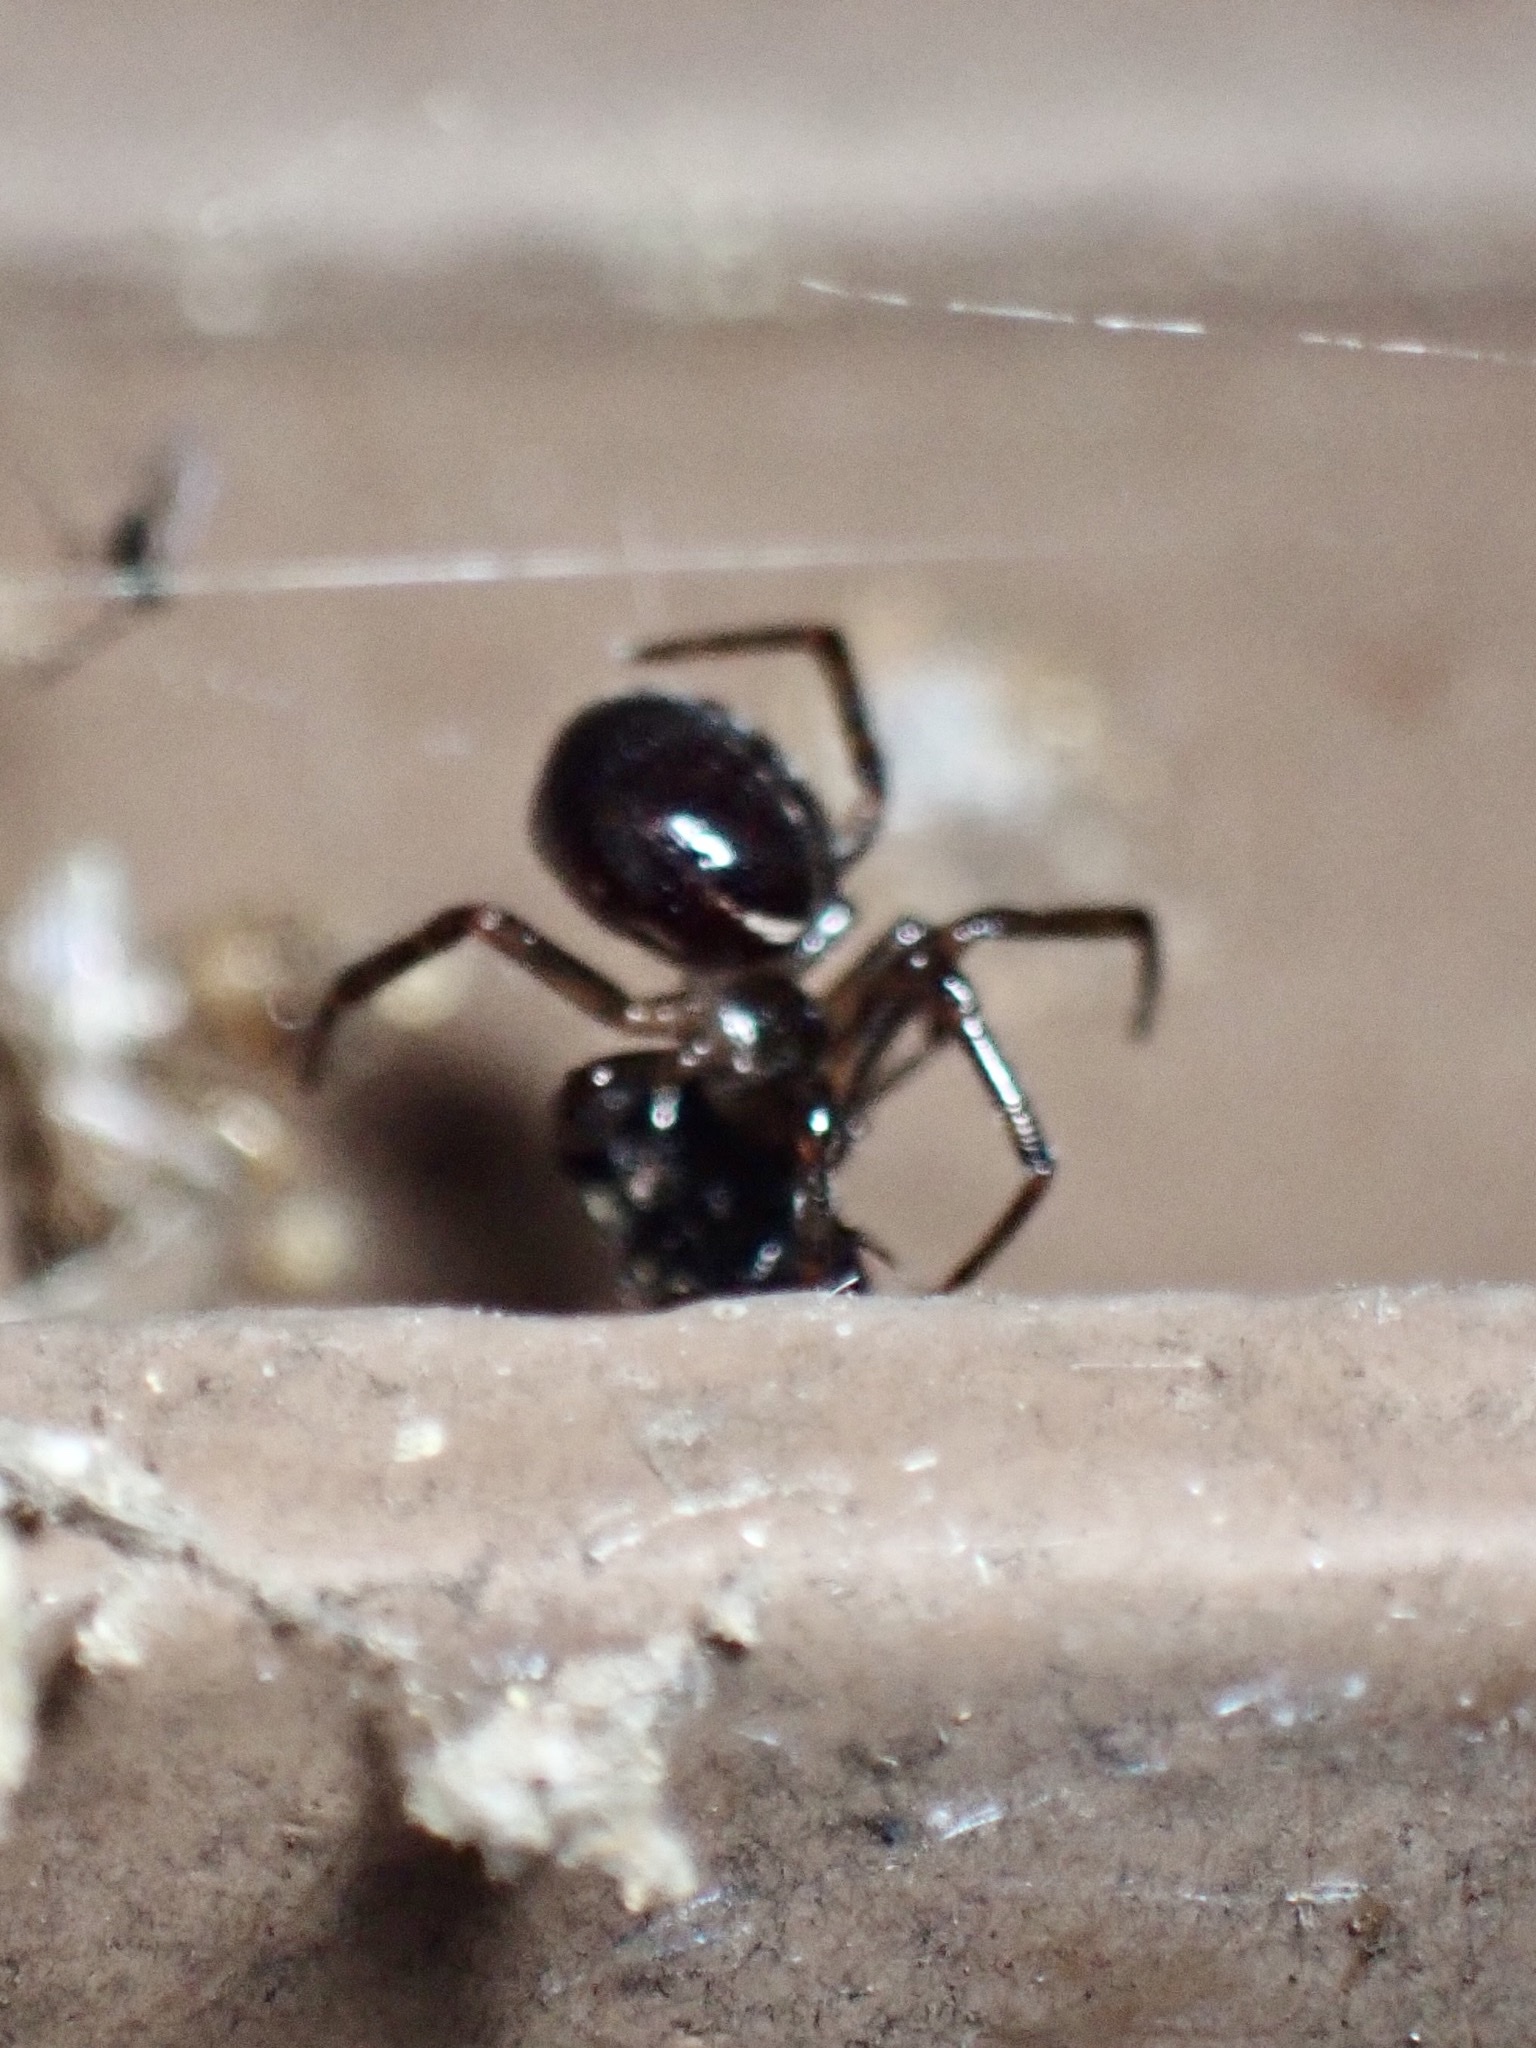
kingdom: Animalia
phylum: Arthropoda
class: Arachnida
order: Araneae
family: Theridiidae
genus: Steatoda
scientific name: Steatoda borealis
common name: Boreal combfoot
